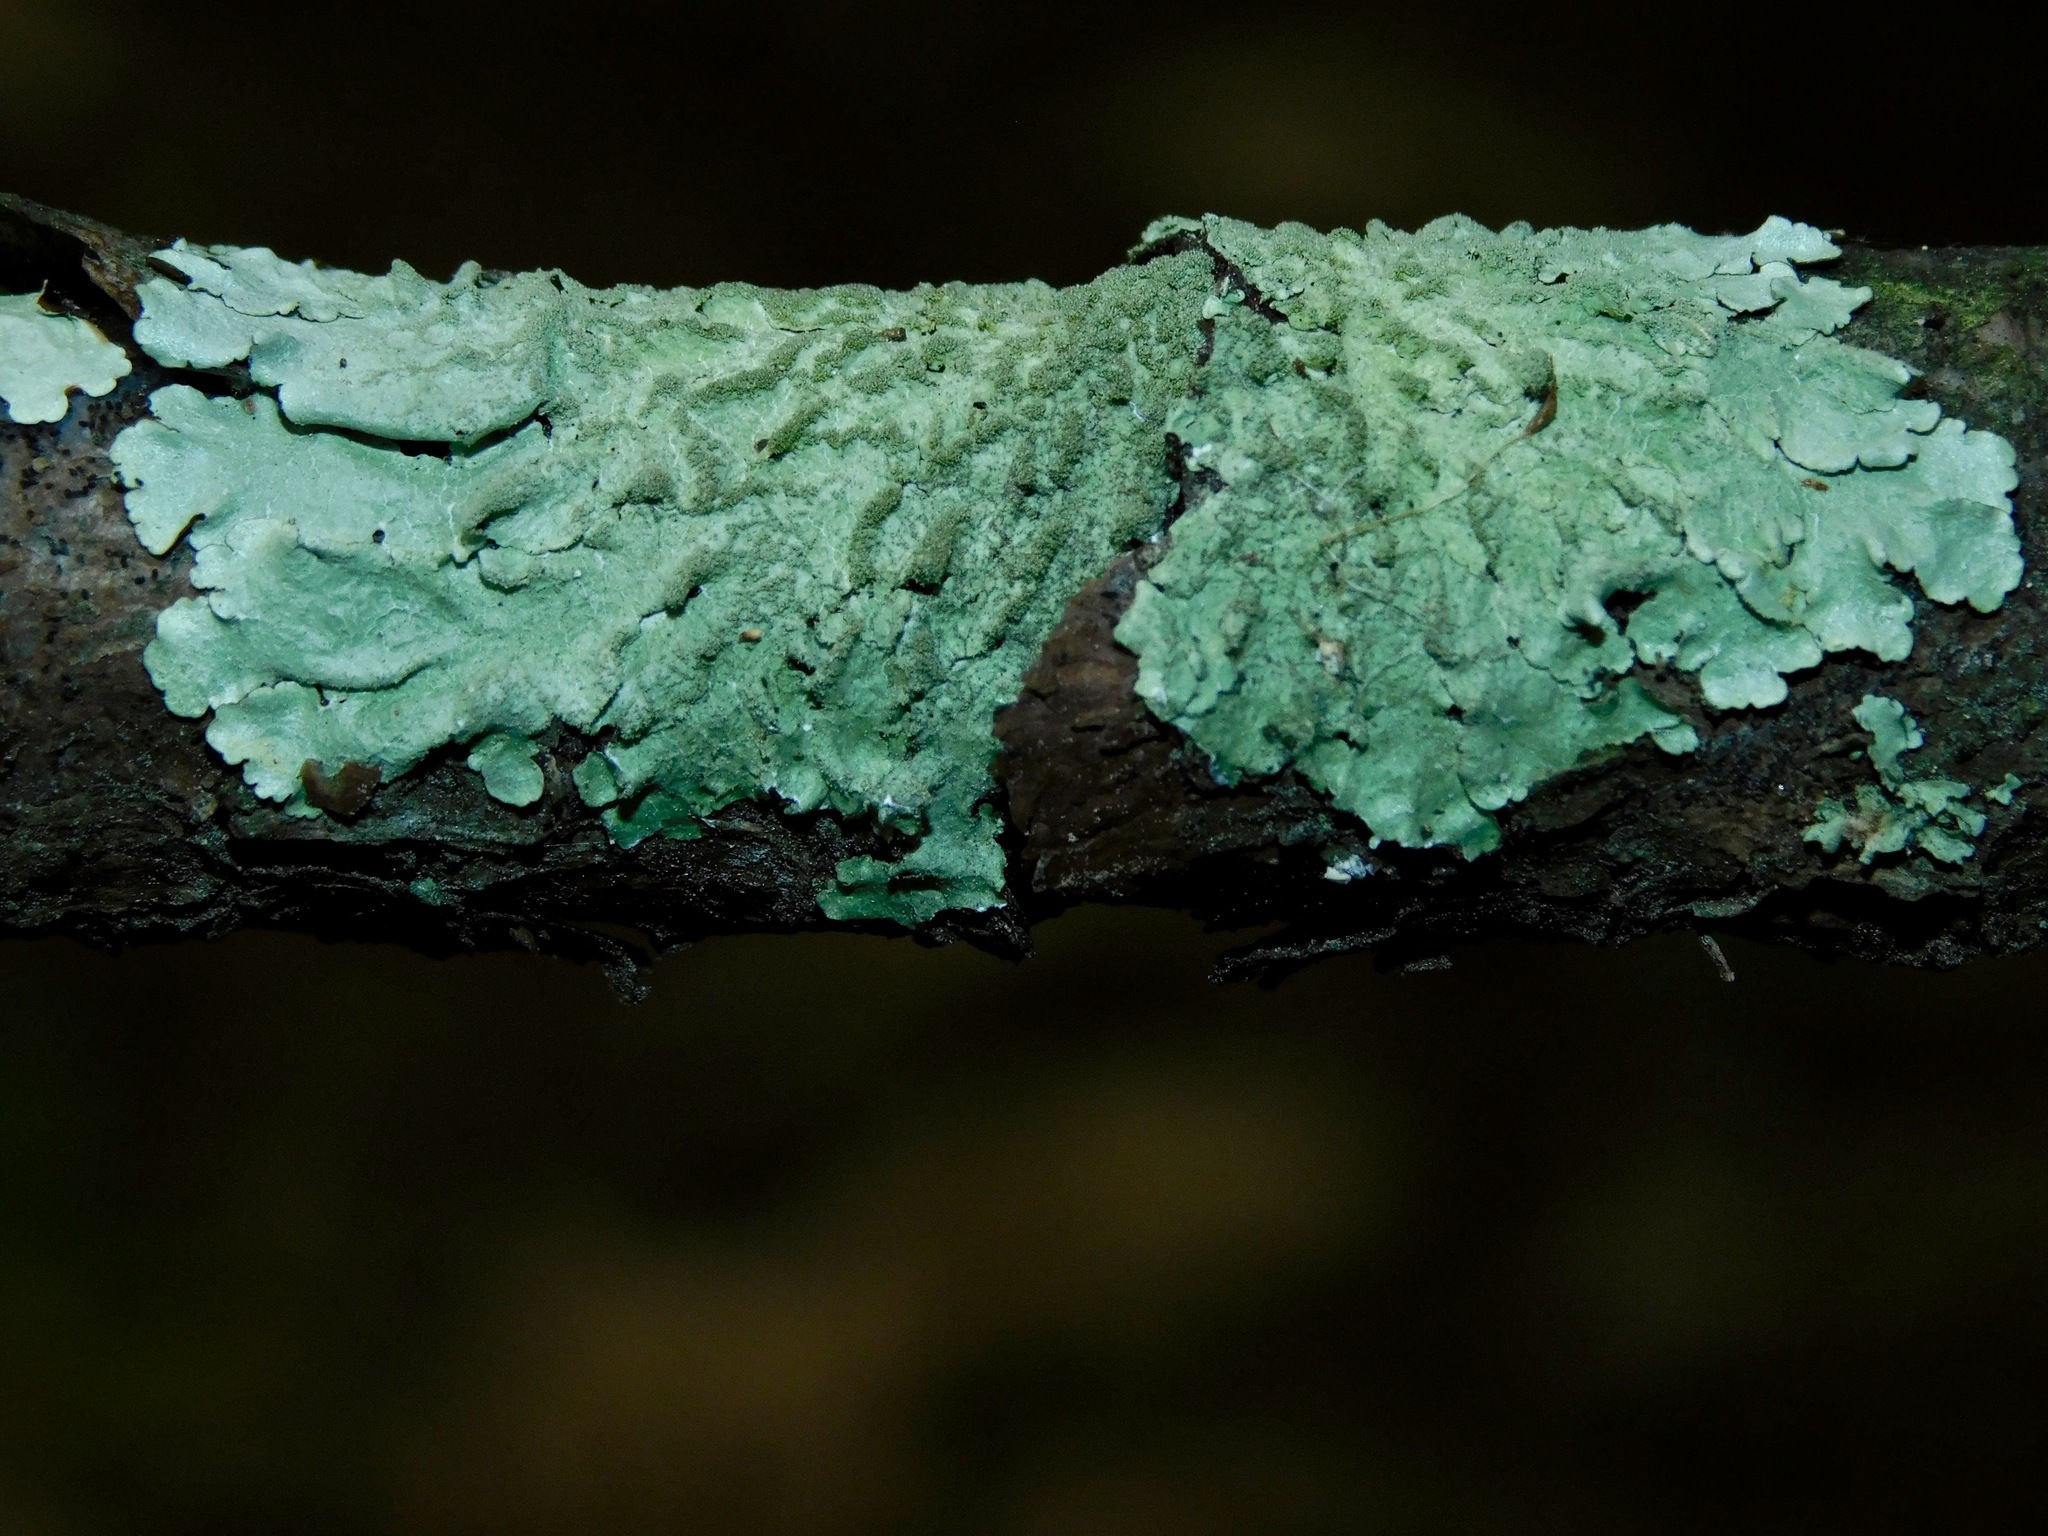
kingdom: Fungi
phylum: Ascomycota
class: Lecanoromycetes
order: Lecanorales
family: Parmeliaceae
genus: Canoparmelia
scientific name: Canoparmelia caroliniana
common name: Carolina shield lichen
